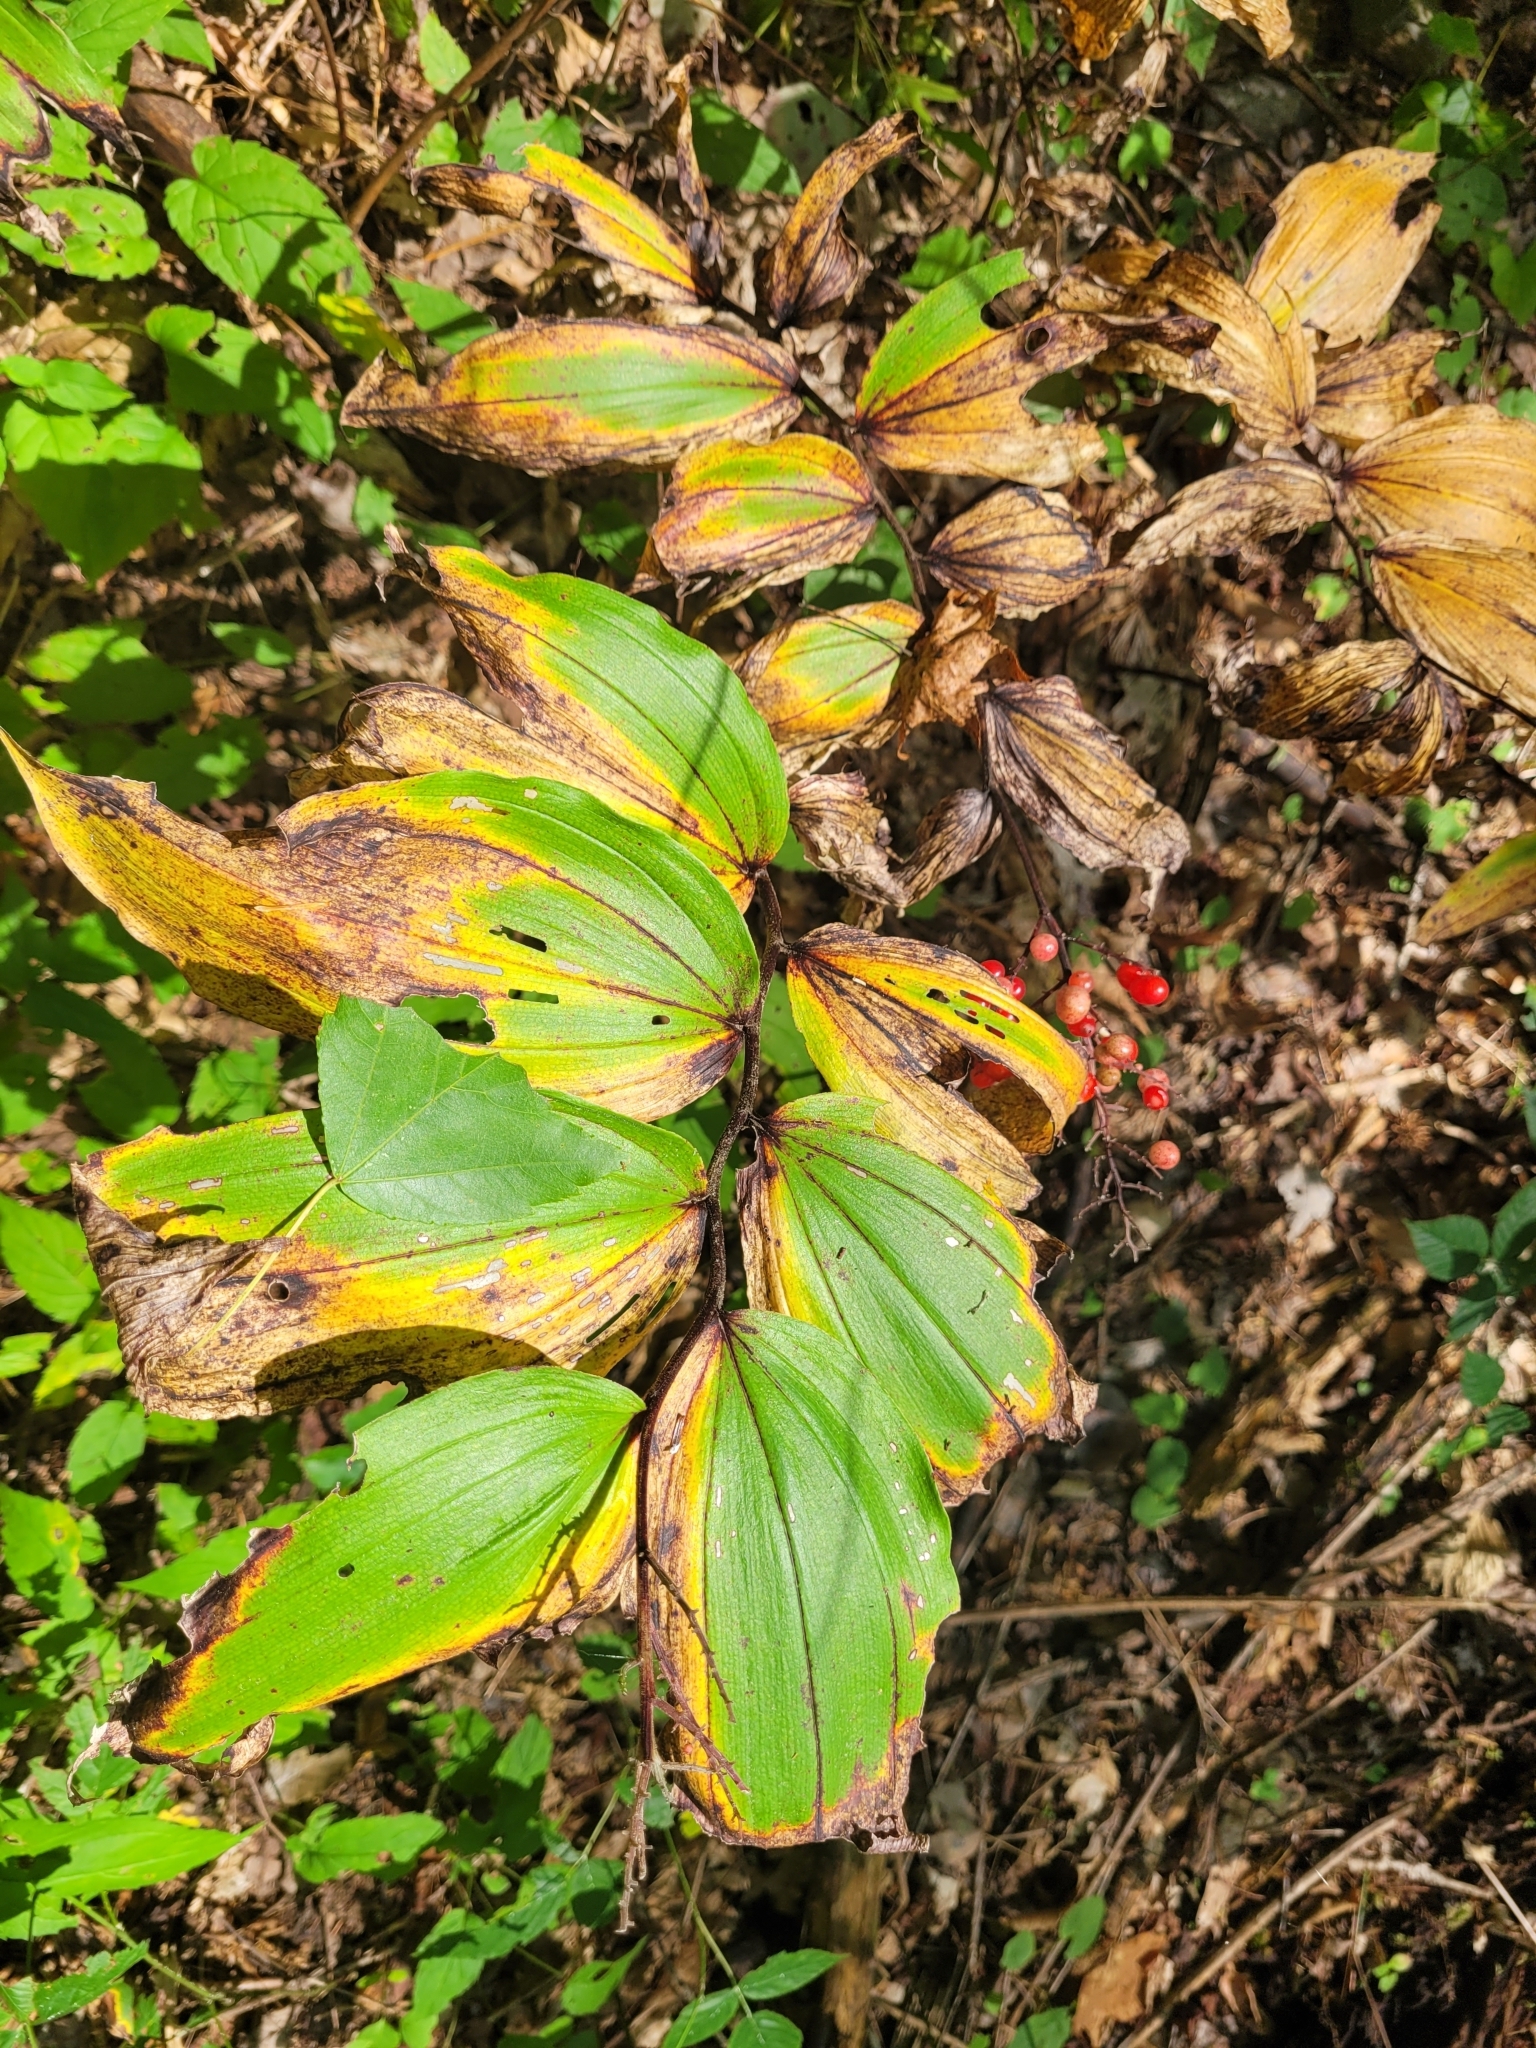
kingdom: Plantae
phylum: Tracheophyta
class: Liliopsida
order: Asparagales
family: Asparagaceae
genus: Maianthemum
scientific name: Maianthemum racemosum
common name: False spikenard
